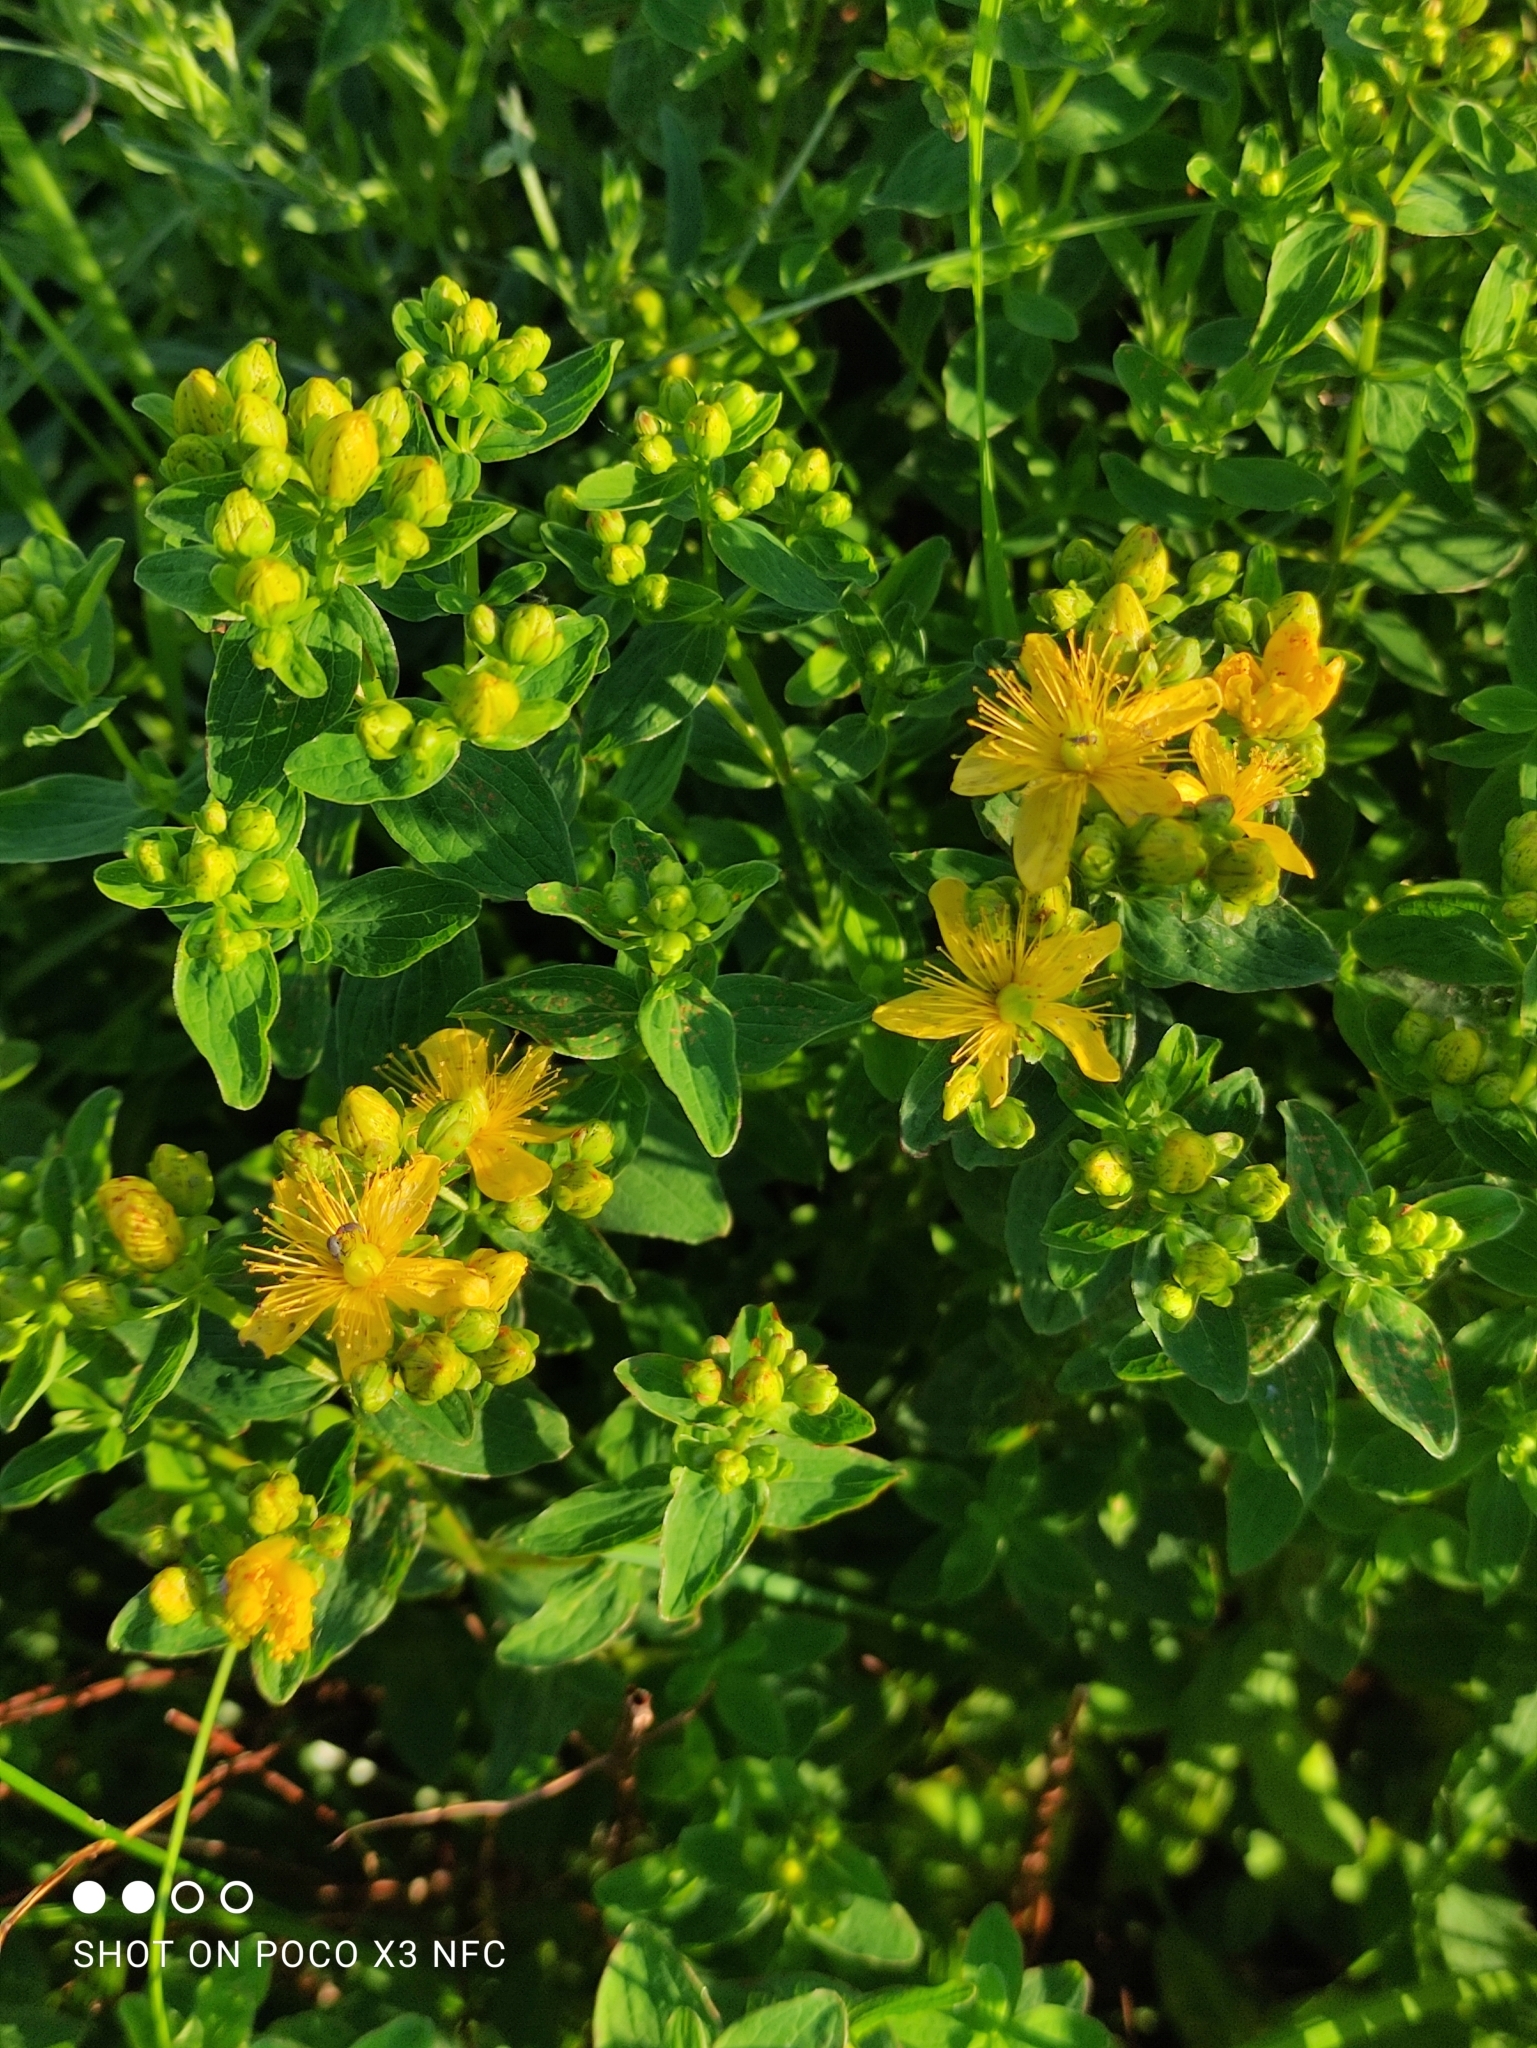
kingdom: Plantae
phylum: Tracheophyta
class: Magnoliopsida
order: Malpighiales
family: Hypericaceae
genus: Hypericum
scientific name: Hypericum maculatum
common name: Imperforate st. john's-wort
